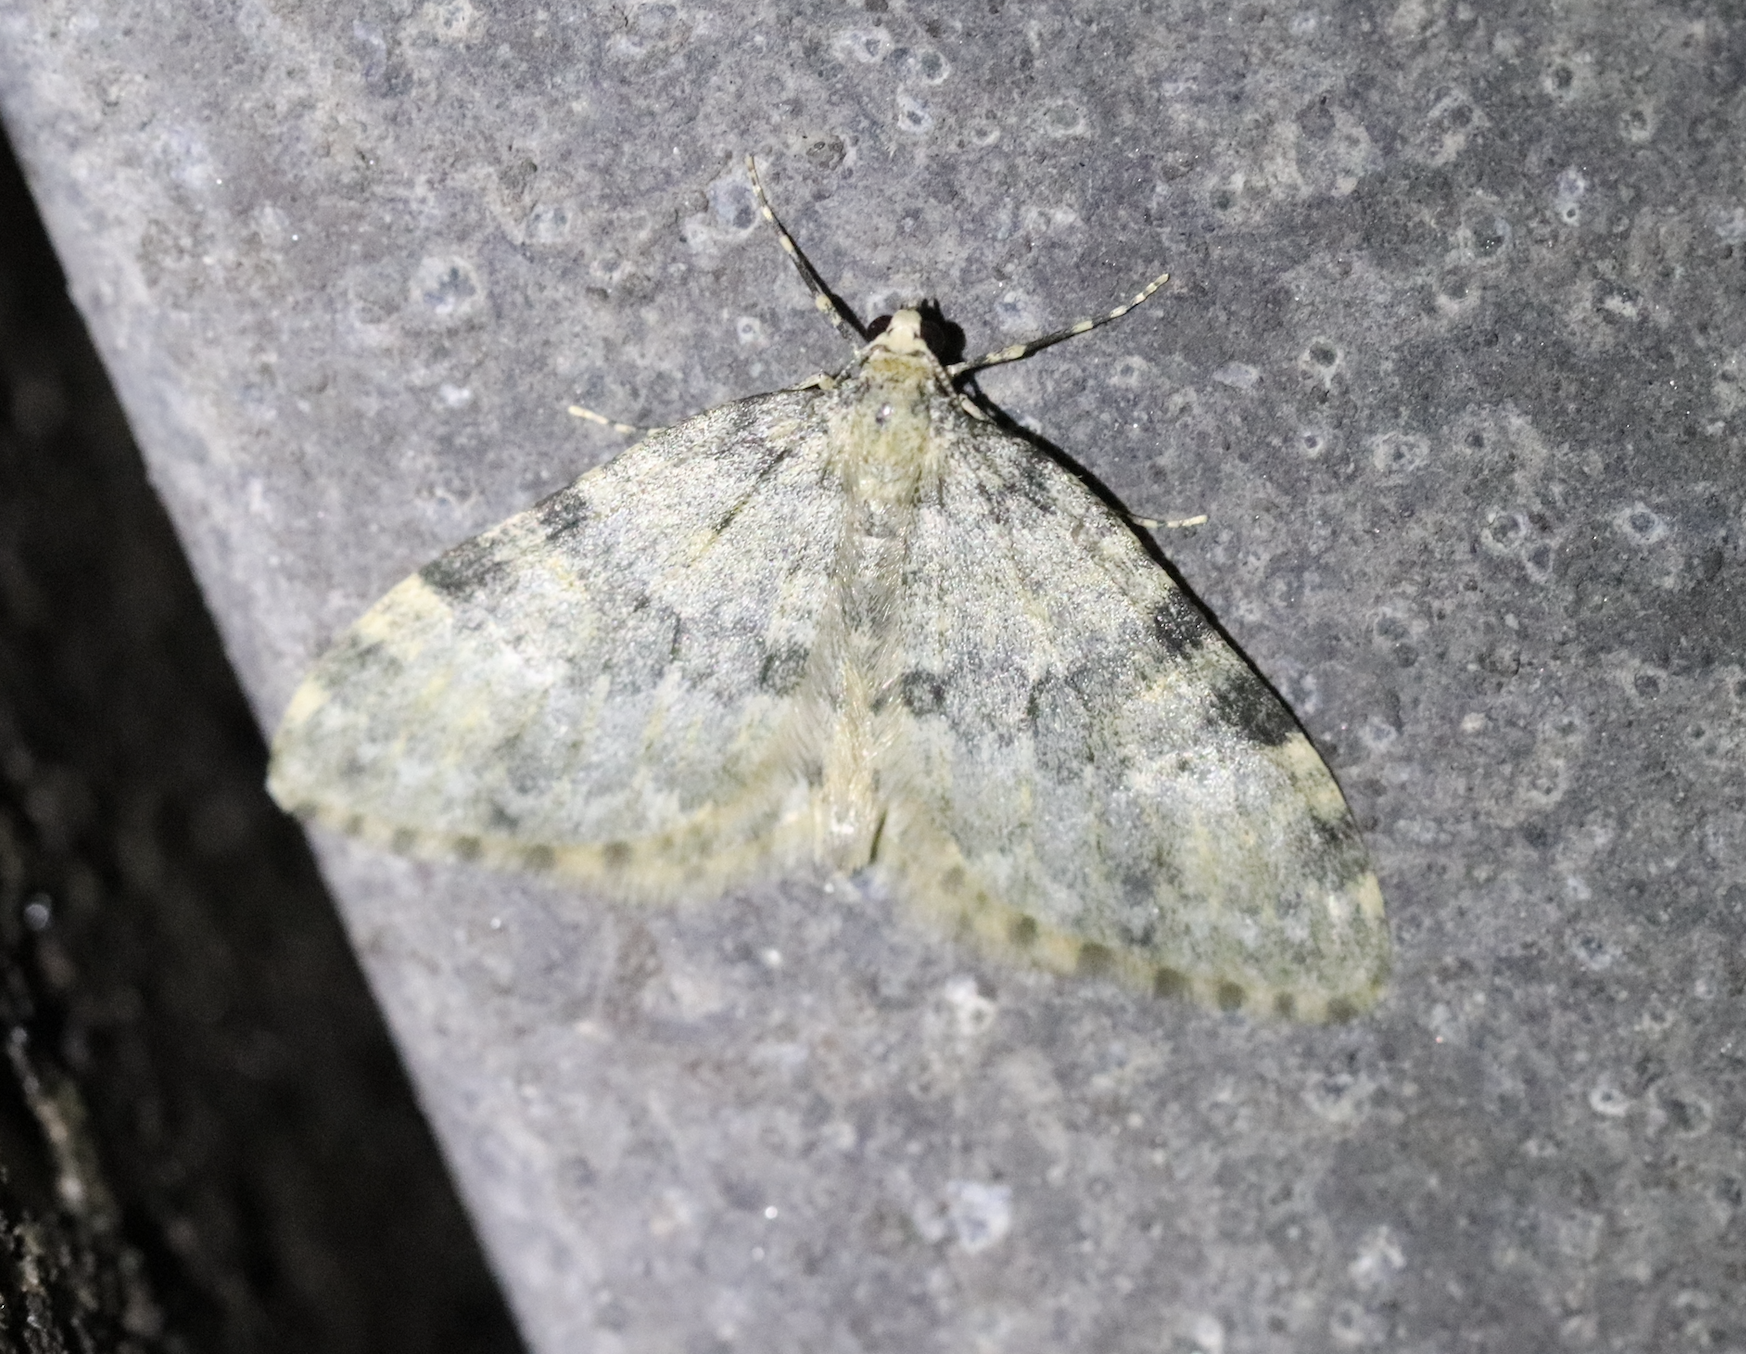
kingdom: Animalia
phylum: Arthropoda
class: Insecta
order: Lepidoptera
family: Geometridae
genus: Entephria
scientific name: Entephria flavata
